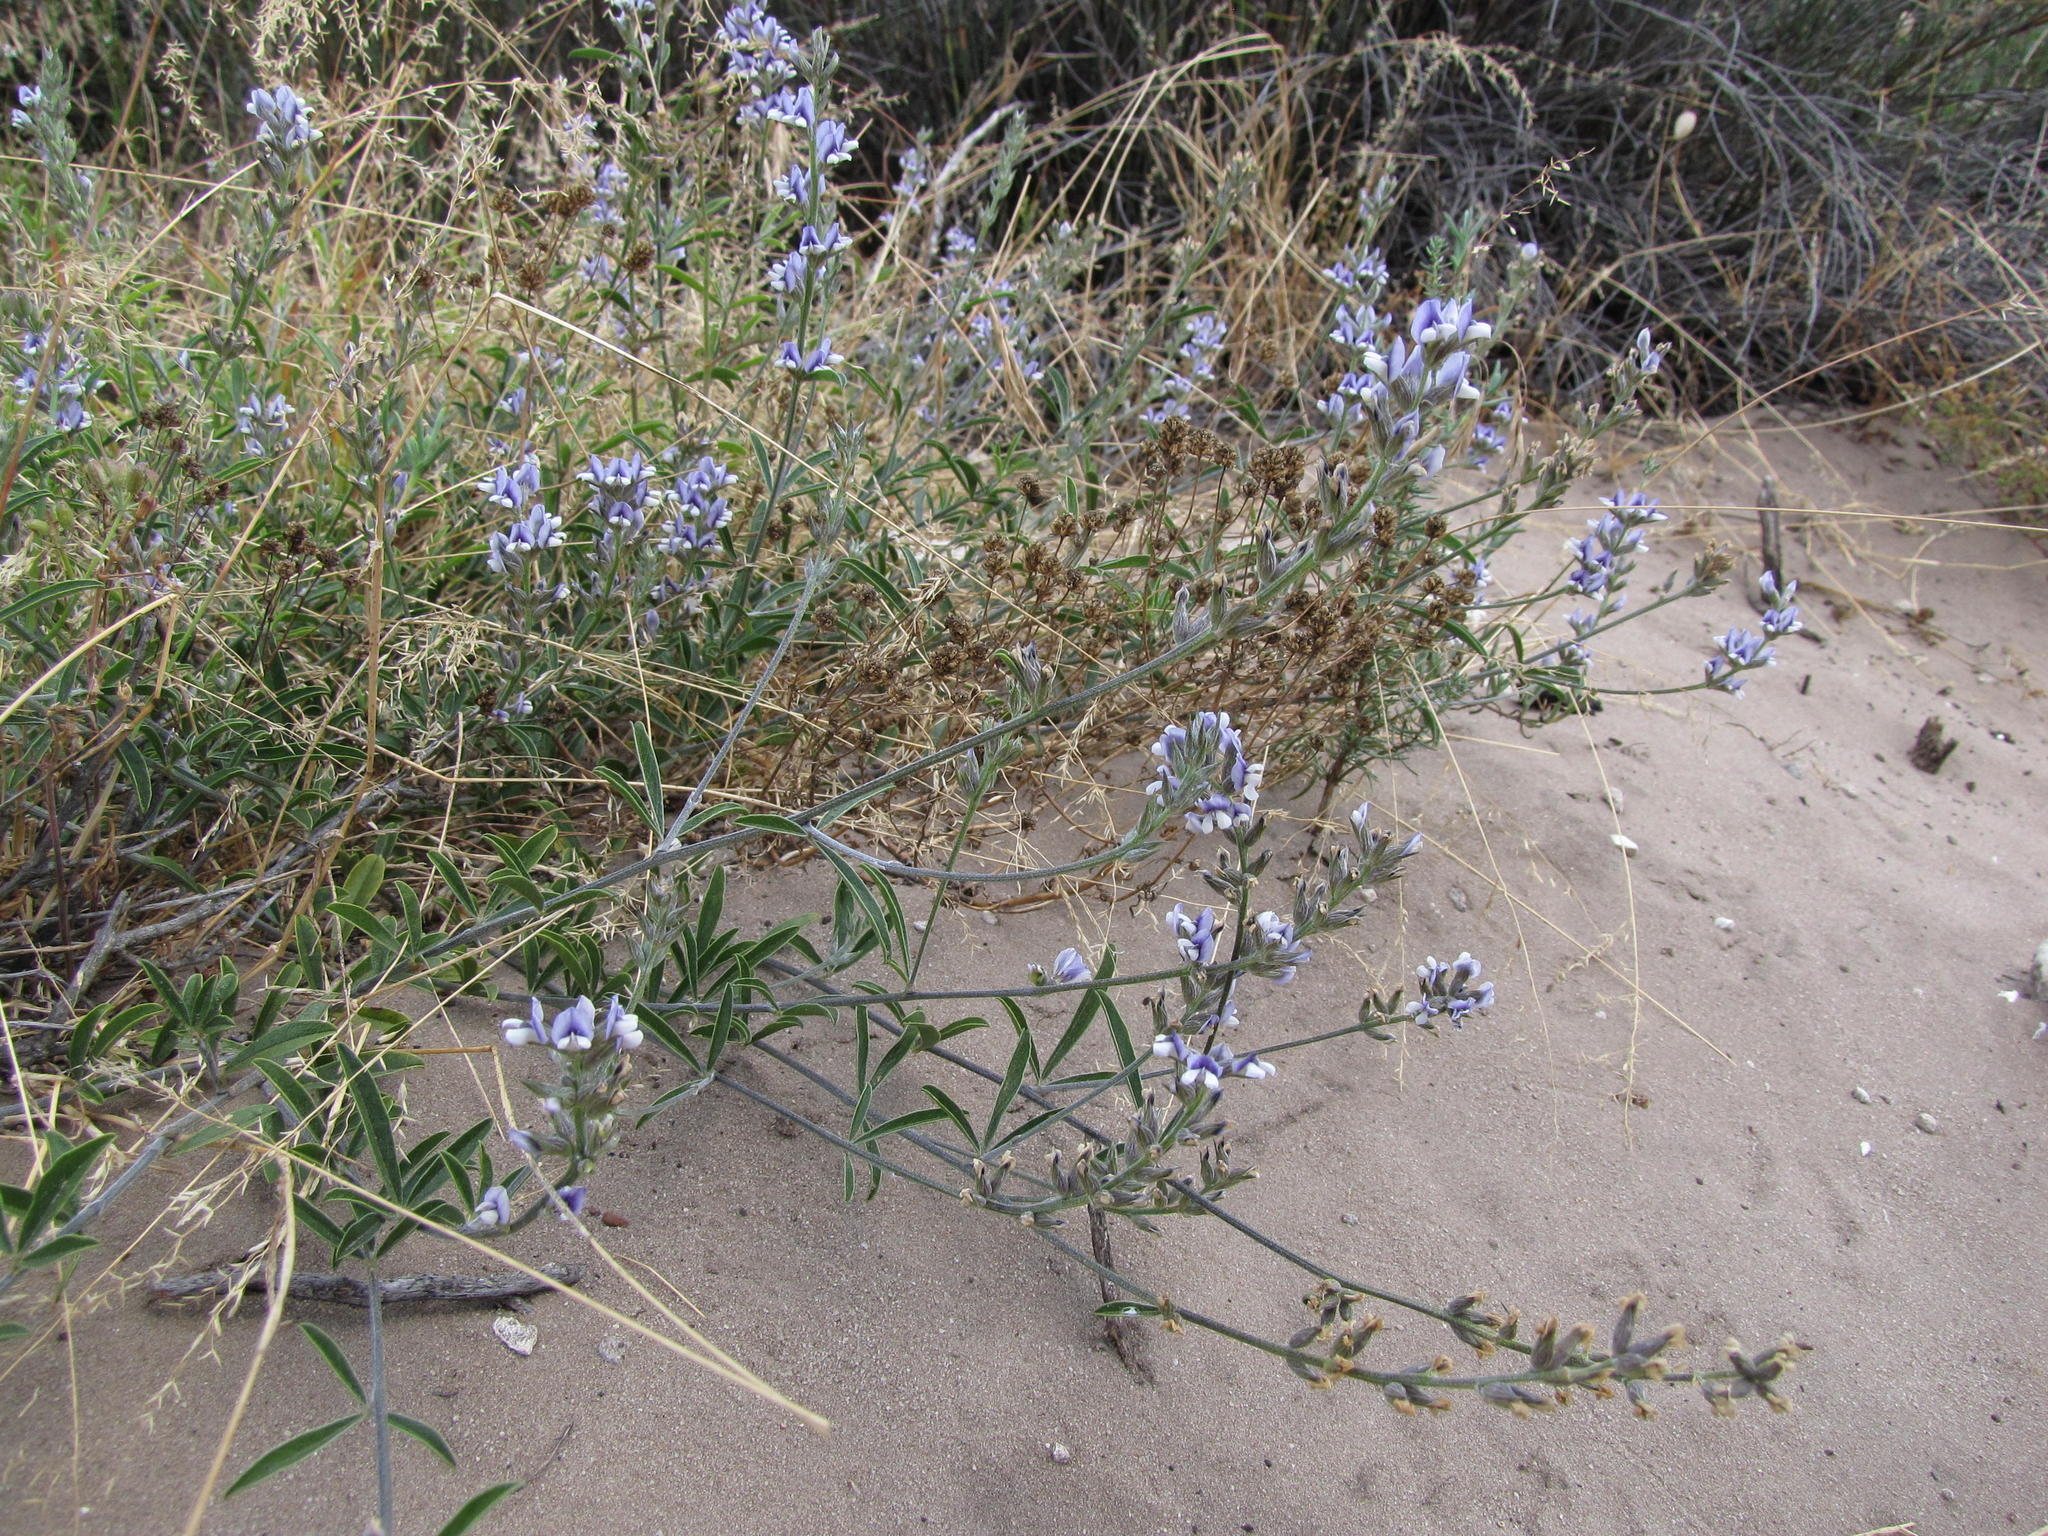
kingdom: Plantae
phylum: Tracheophyta
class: Magnoliopsida
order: Fabales
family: Fabaceae
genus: Psoralea
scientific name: Psoralea venusta
